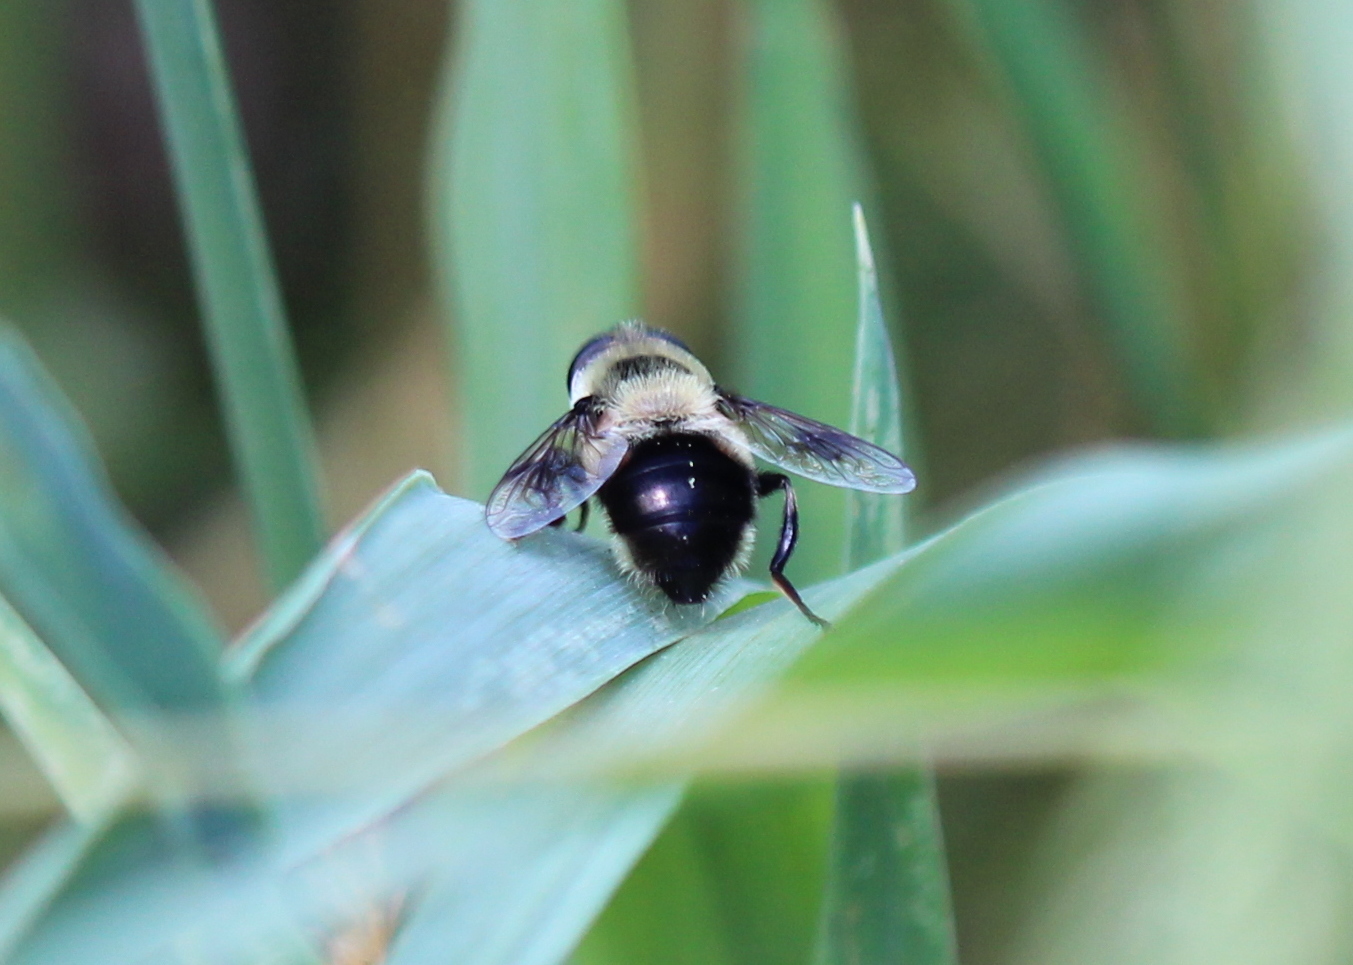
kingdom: Animalia
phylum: Arthropoda
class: Insecta
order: Diptera
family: Syrphidae
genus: Eristalis
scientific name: Eristalis anthophorina
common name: Orange-spotted drone fly
